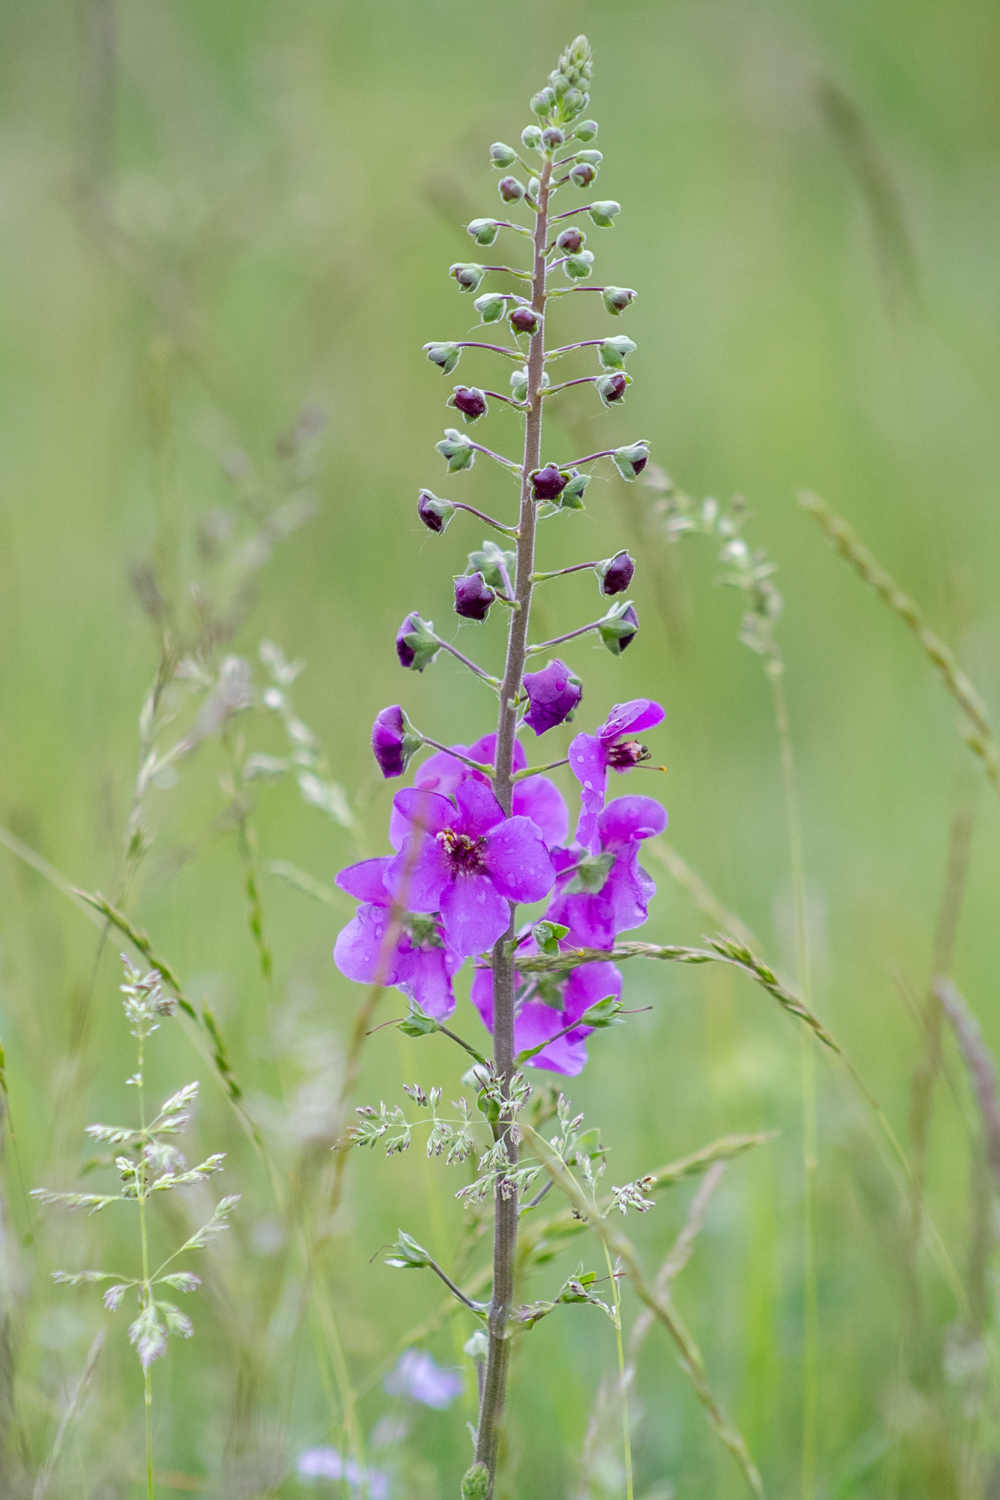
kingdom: Plantae
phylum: Tracheophyta
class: Magnoliopsida
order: Lamiales
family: Scrophulariaceae
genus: Verbascum
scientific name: Verbascum phoeniceum
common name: Purple mullein
